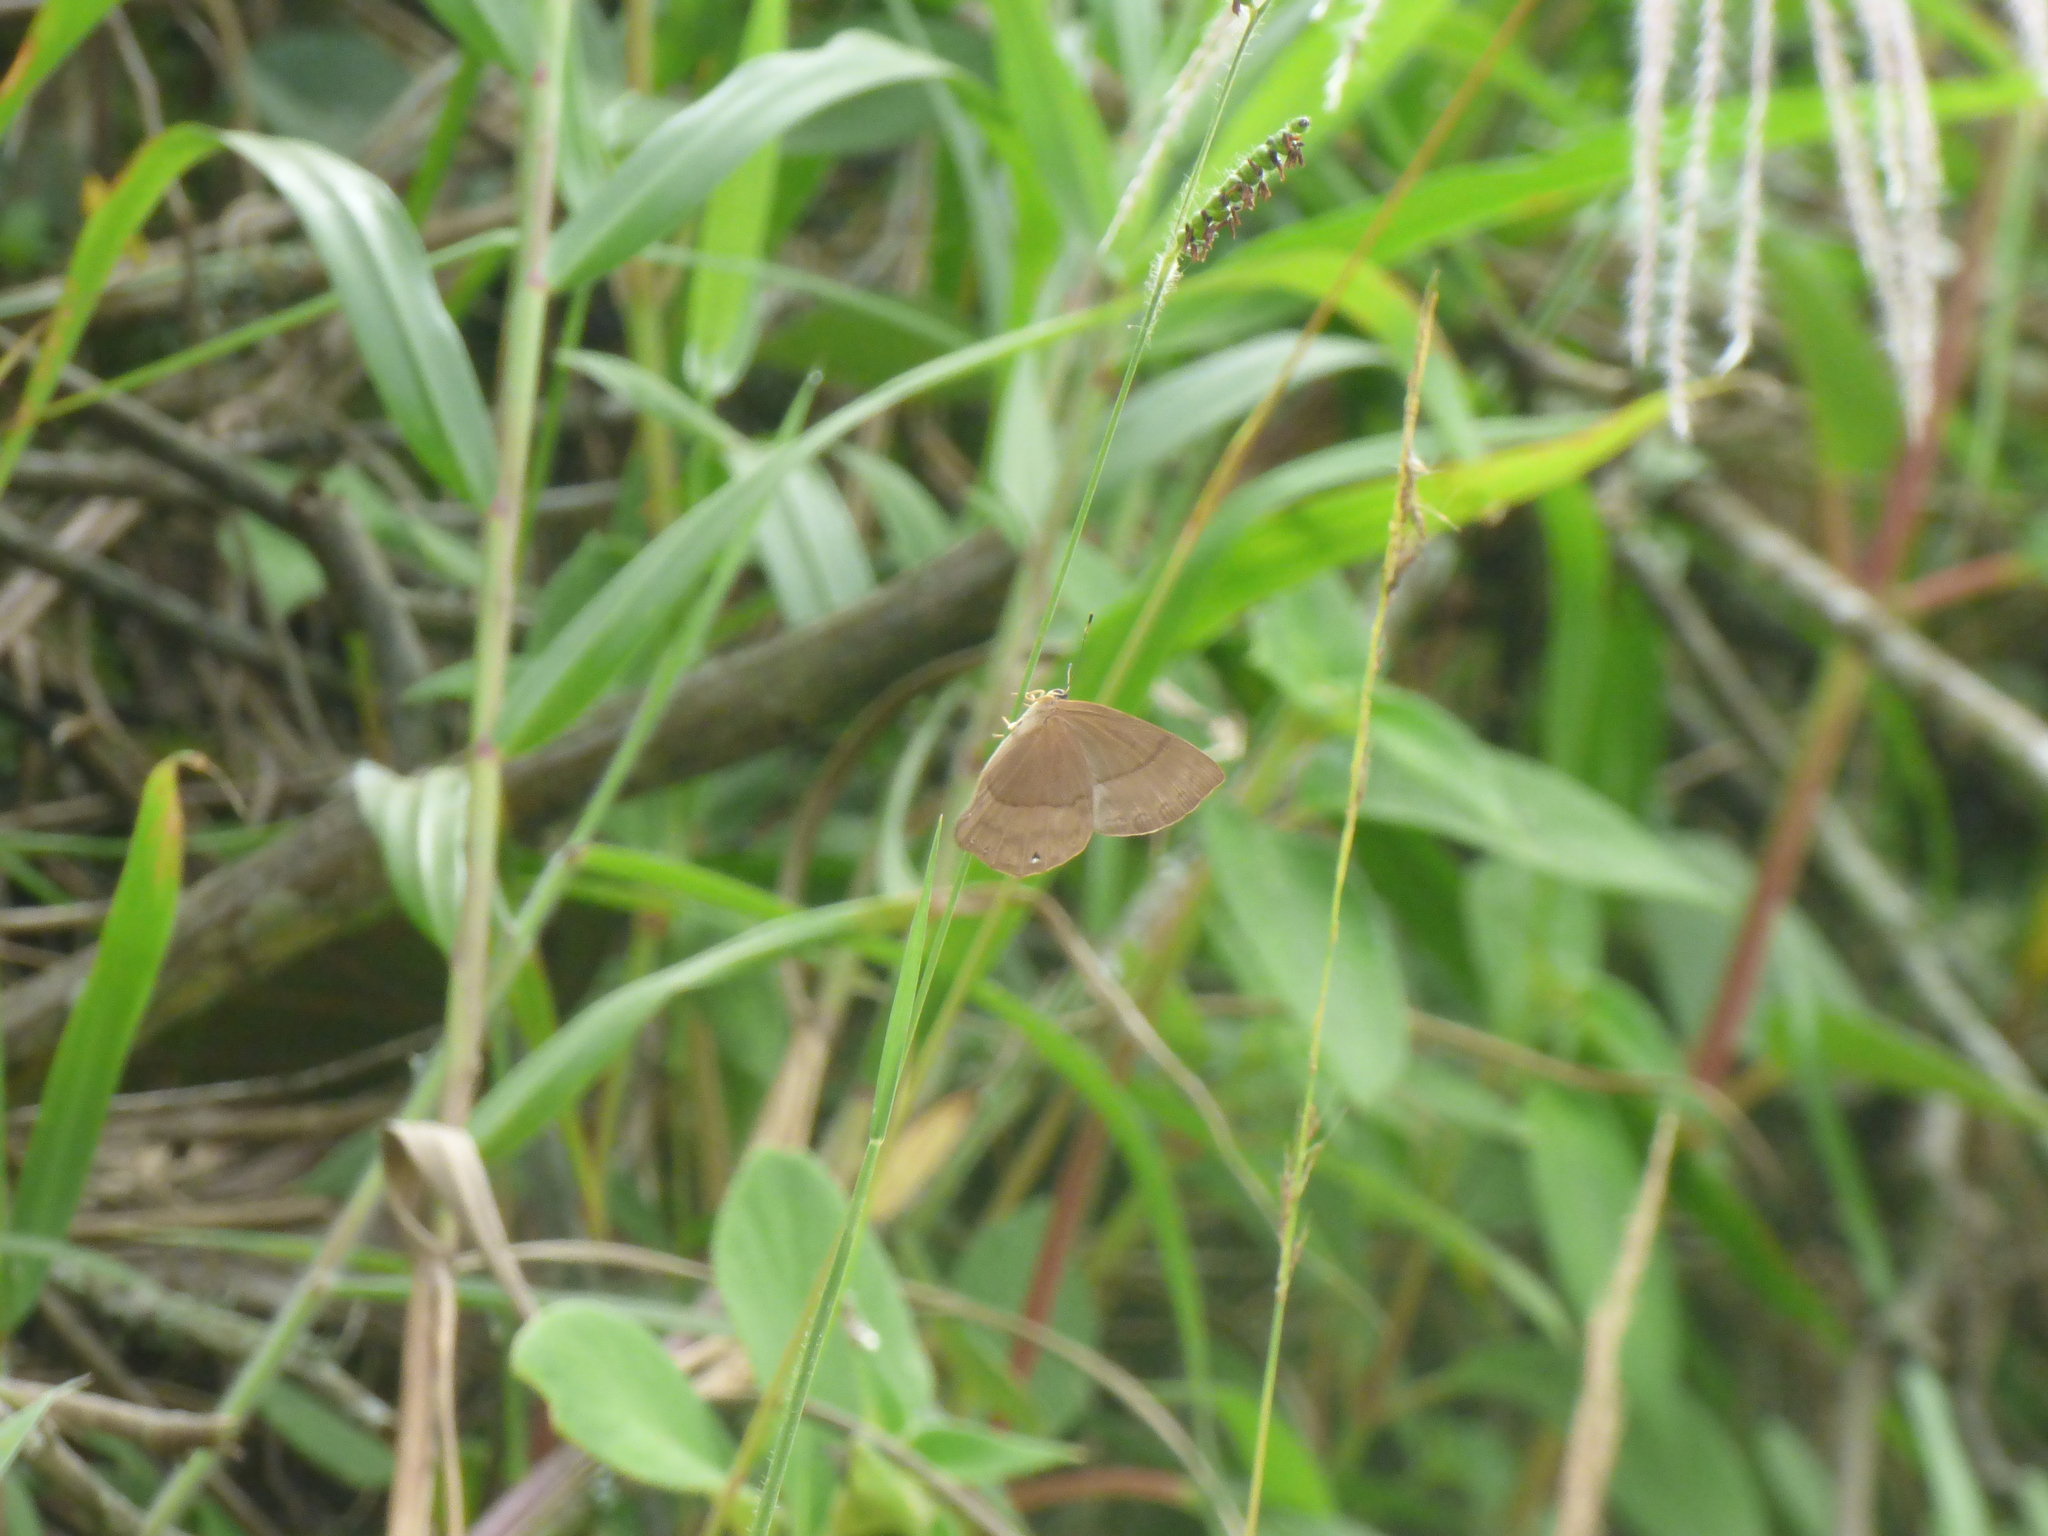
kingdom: Animalia
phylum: Arthropoda
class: Insecta
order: Hemiptera
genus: Marmessus
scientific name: Marmessus
